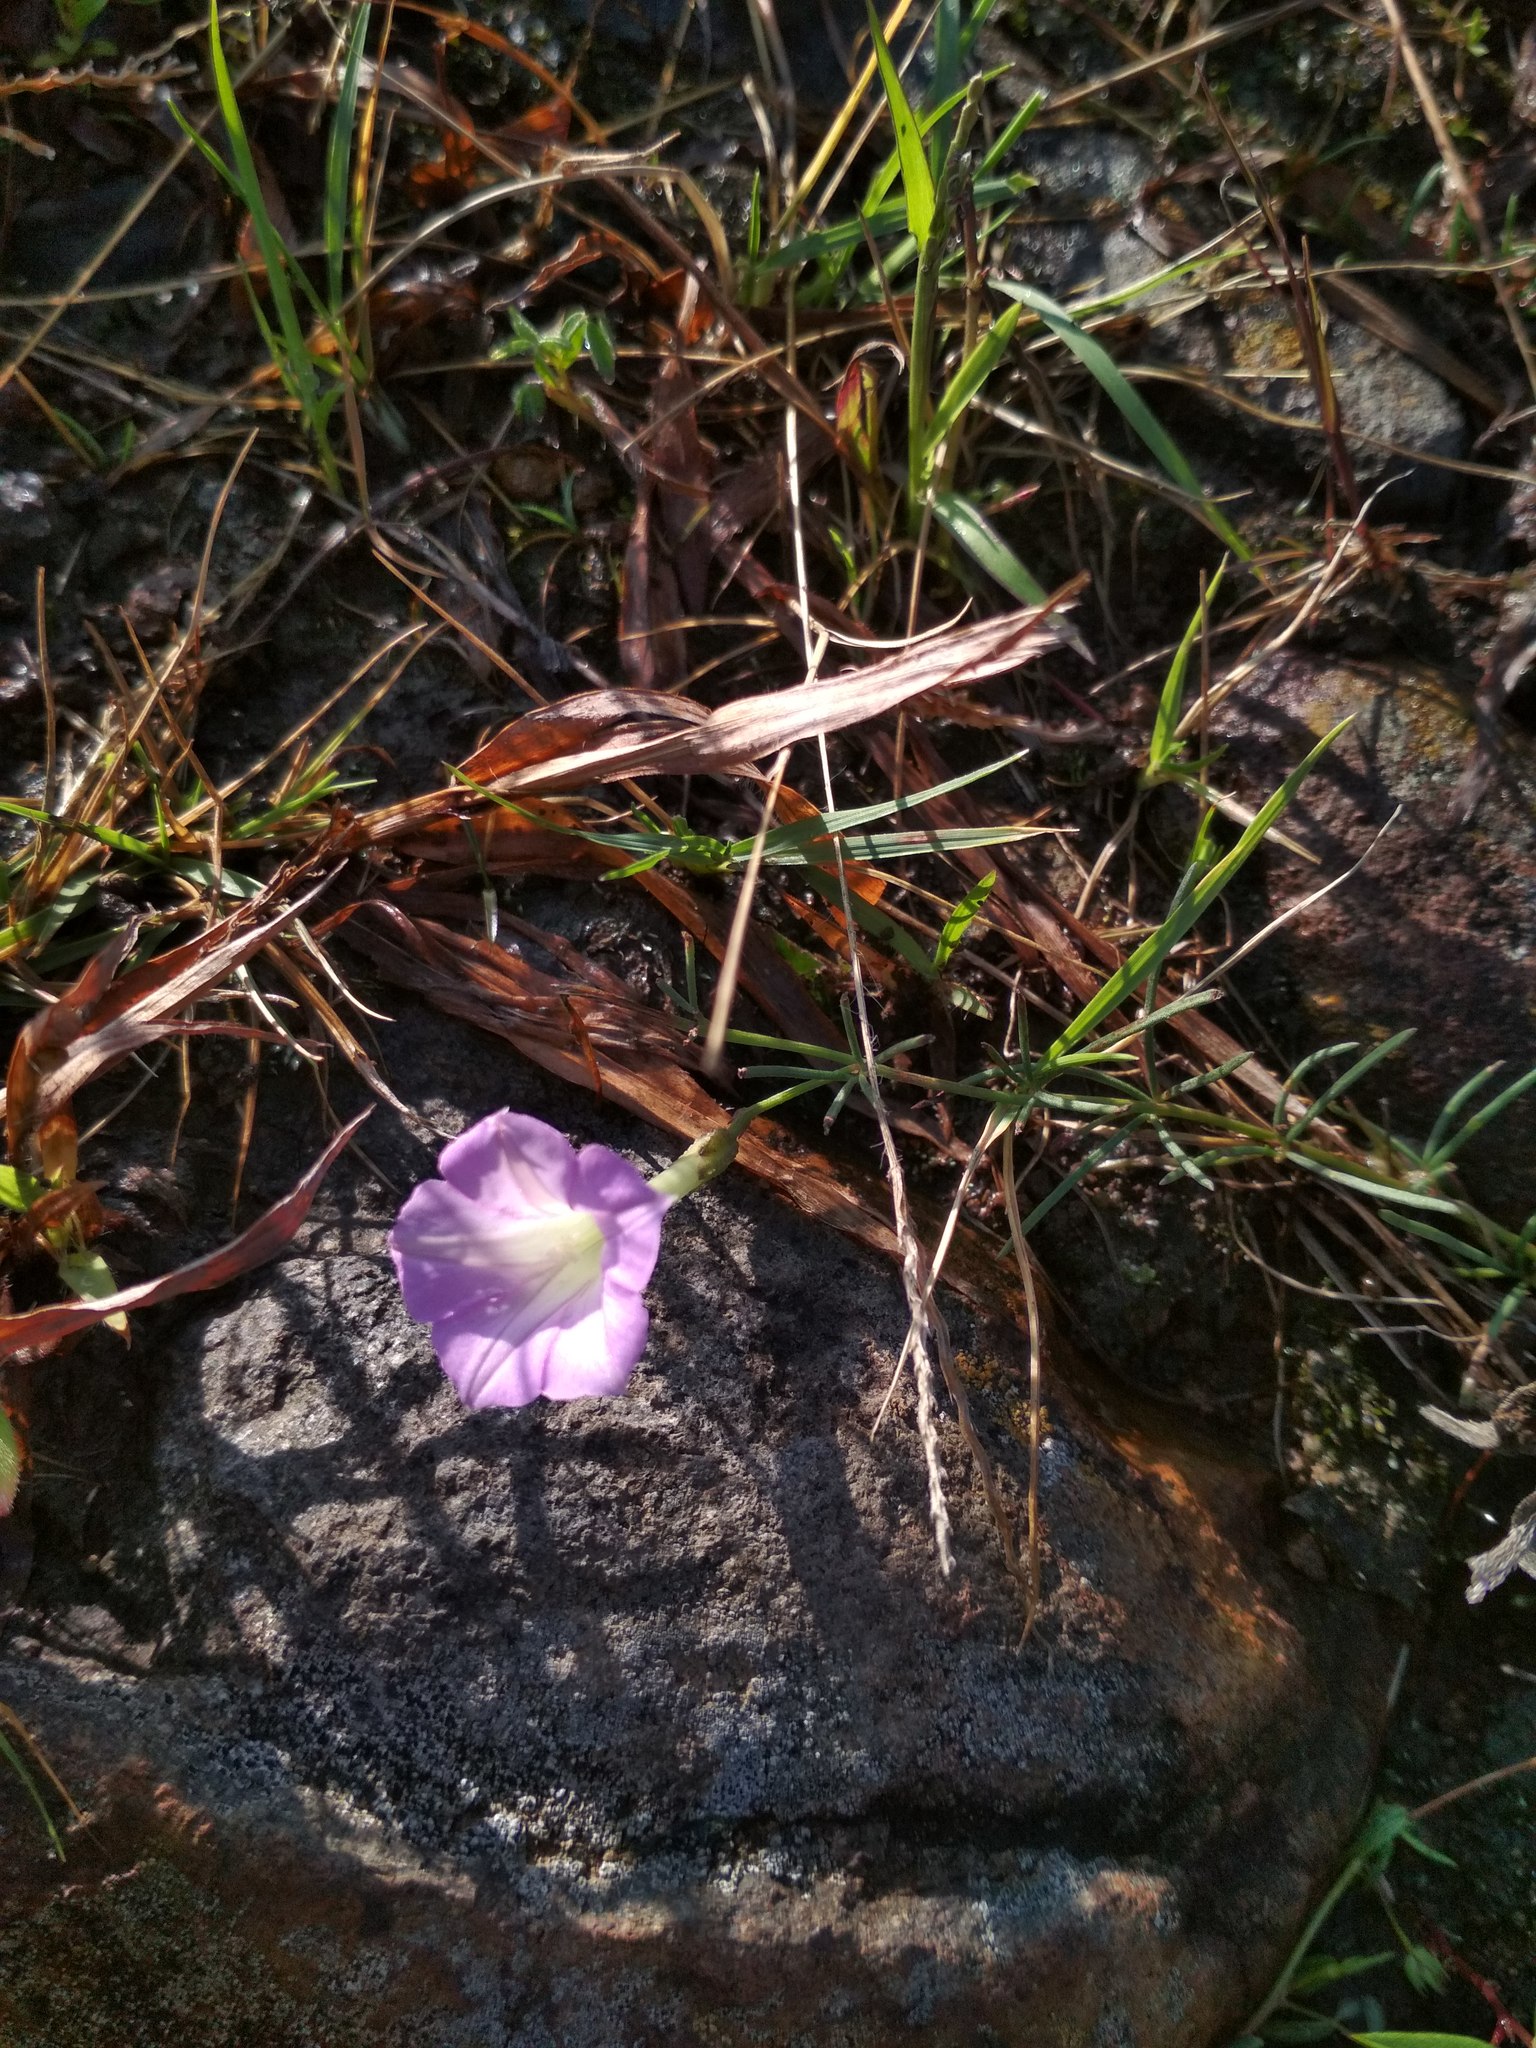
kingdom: Plantae
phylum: Tracheophyta
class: Magnoliopsida
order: Solanales
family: Convolvulaceae
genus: Ipomoea
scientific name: Ipomoea capillacea
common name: Purple morning-glory
